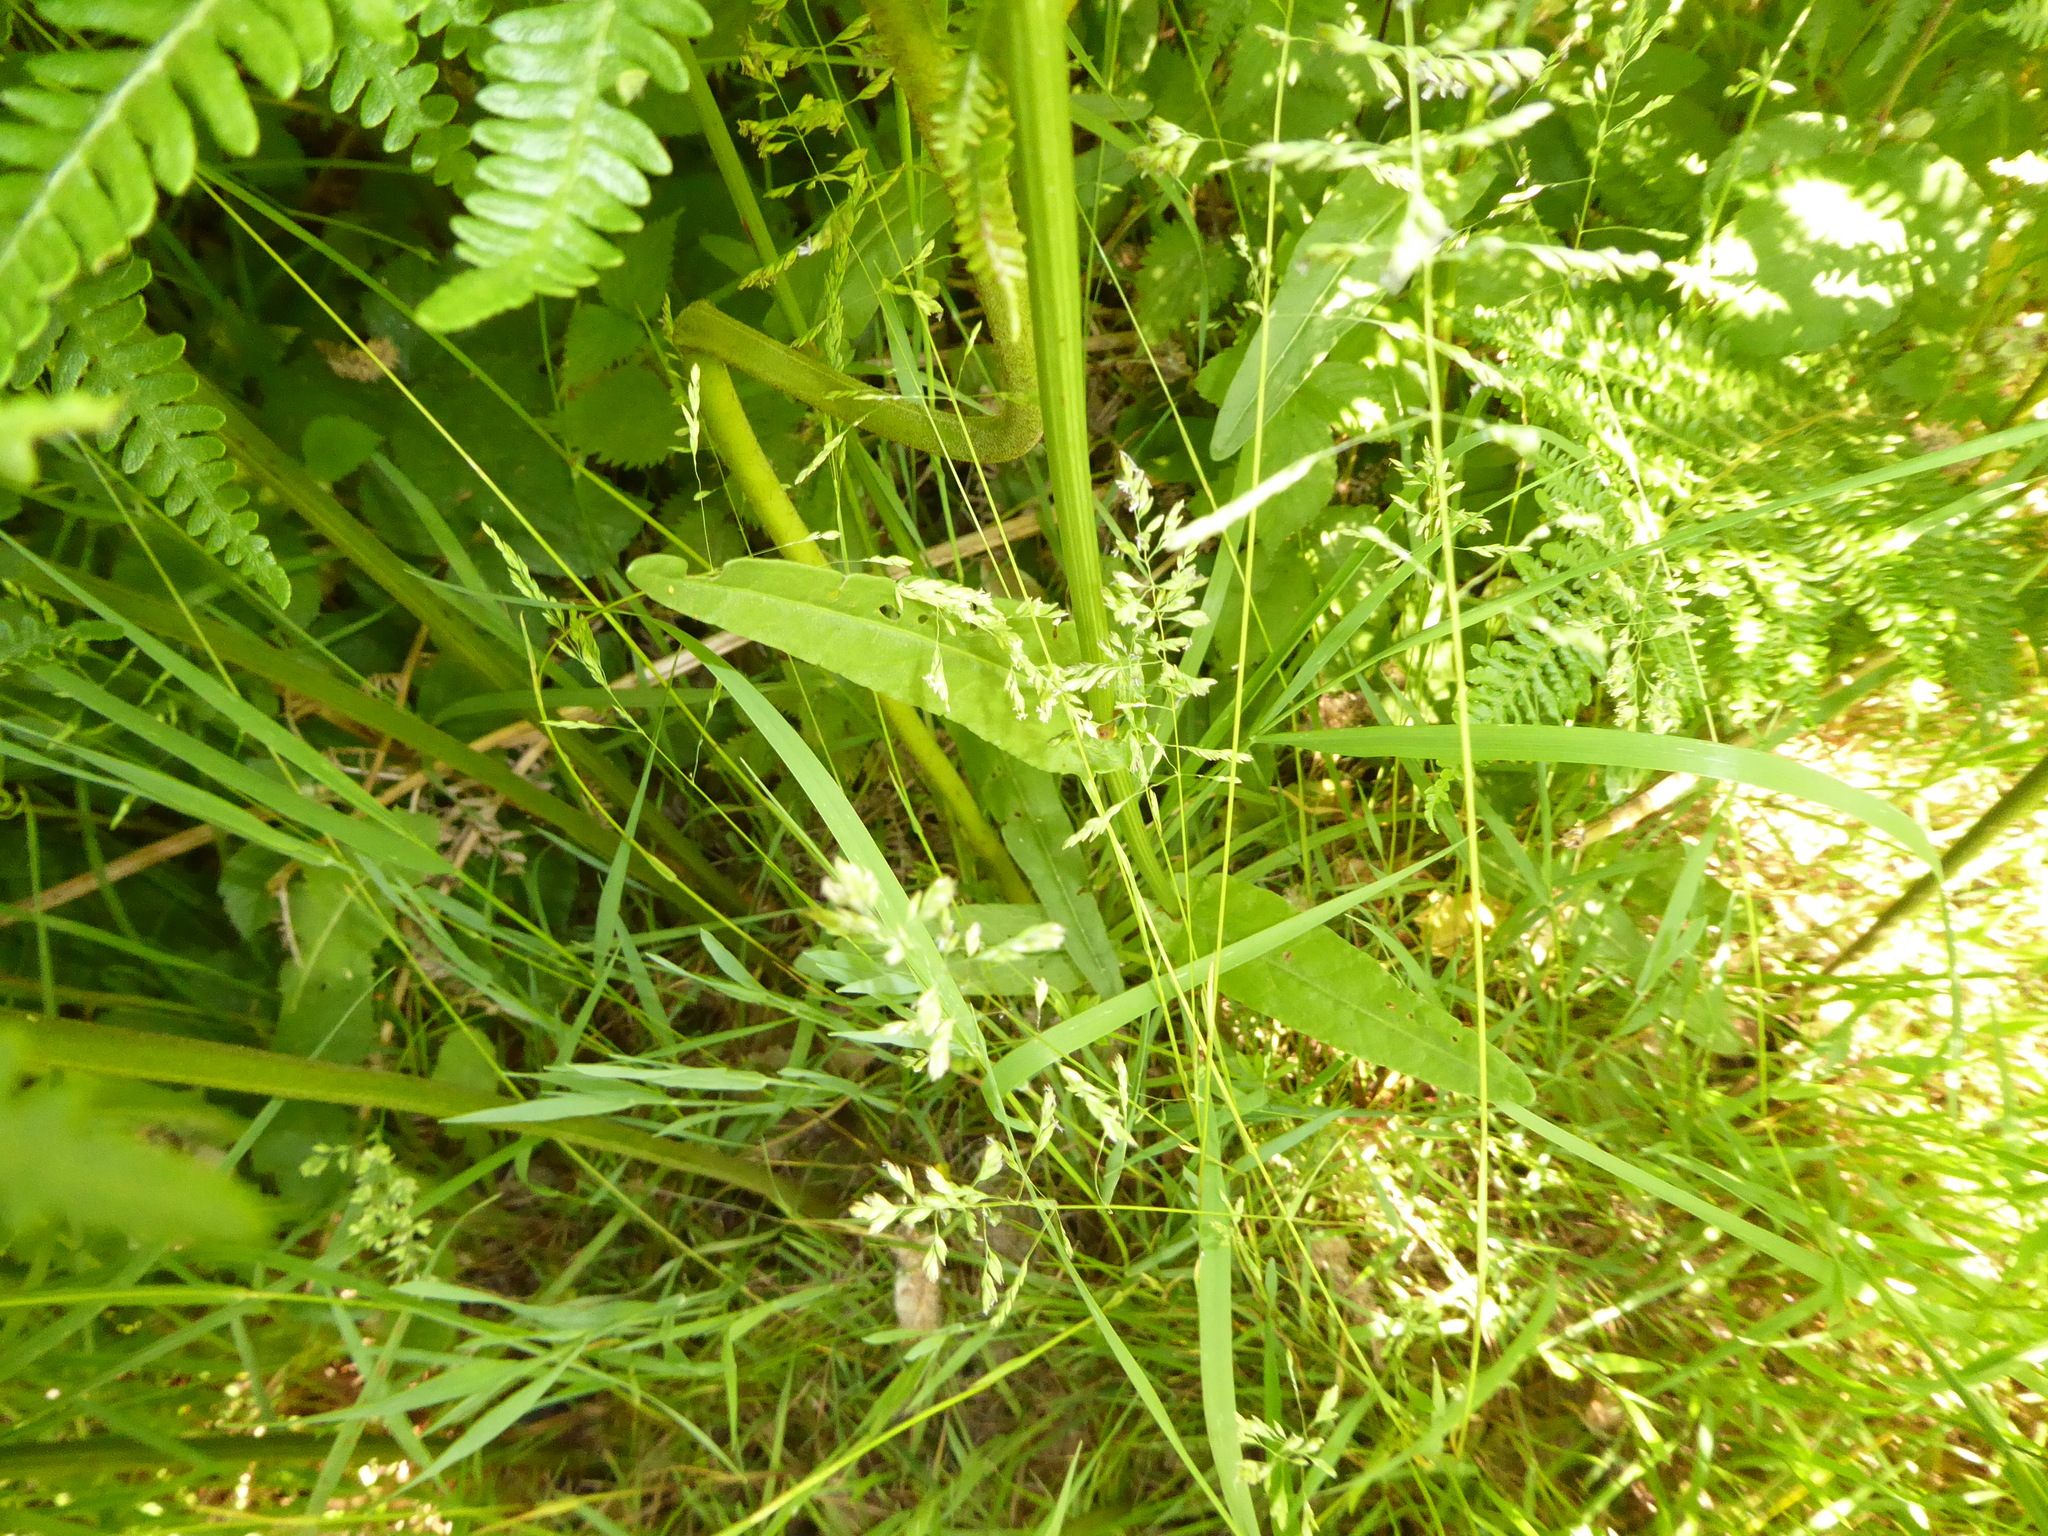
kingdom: Plantae
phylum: Tracheophyta
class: Magnoliopsida
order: Caryophyllales
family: Polygonaceae
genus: Rumex
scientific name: Rumex acetosa
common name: Garden sorrel
